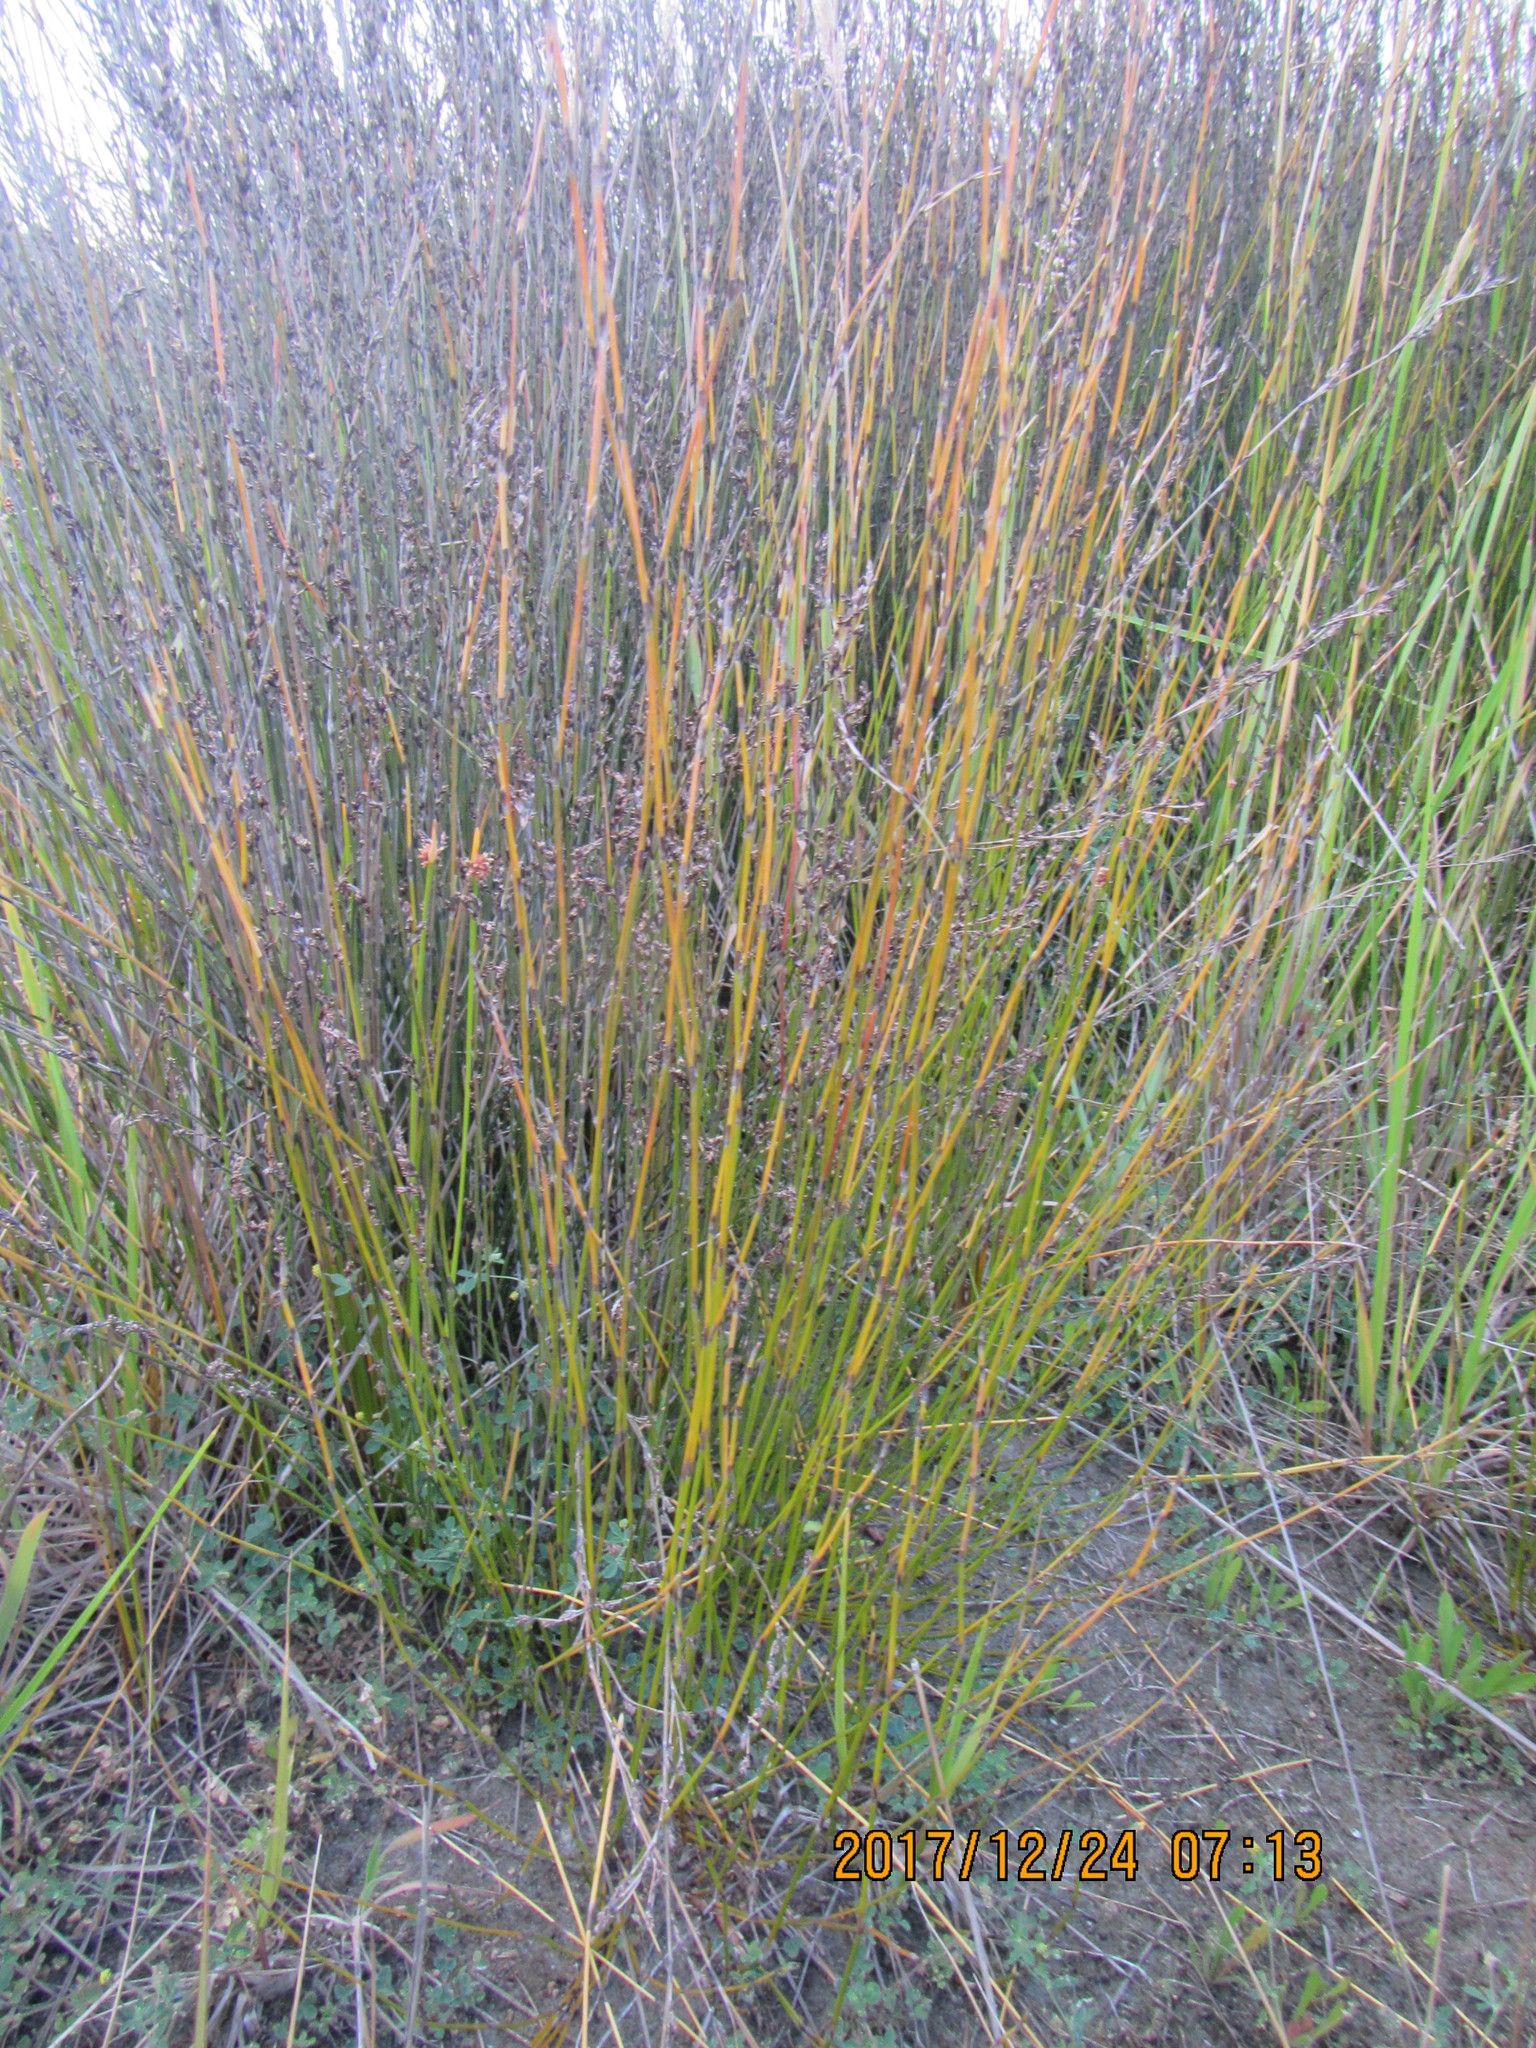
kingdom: Plantae
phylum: Tracheophyta
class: Liliopsida
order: Poales
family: Restionaceae
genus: Apodasmia
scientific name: Apodasmia similis
